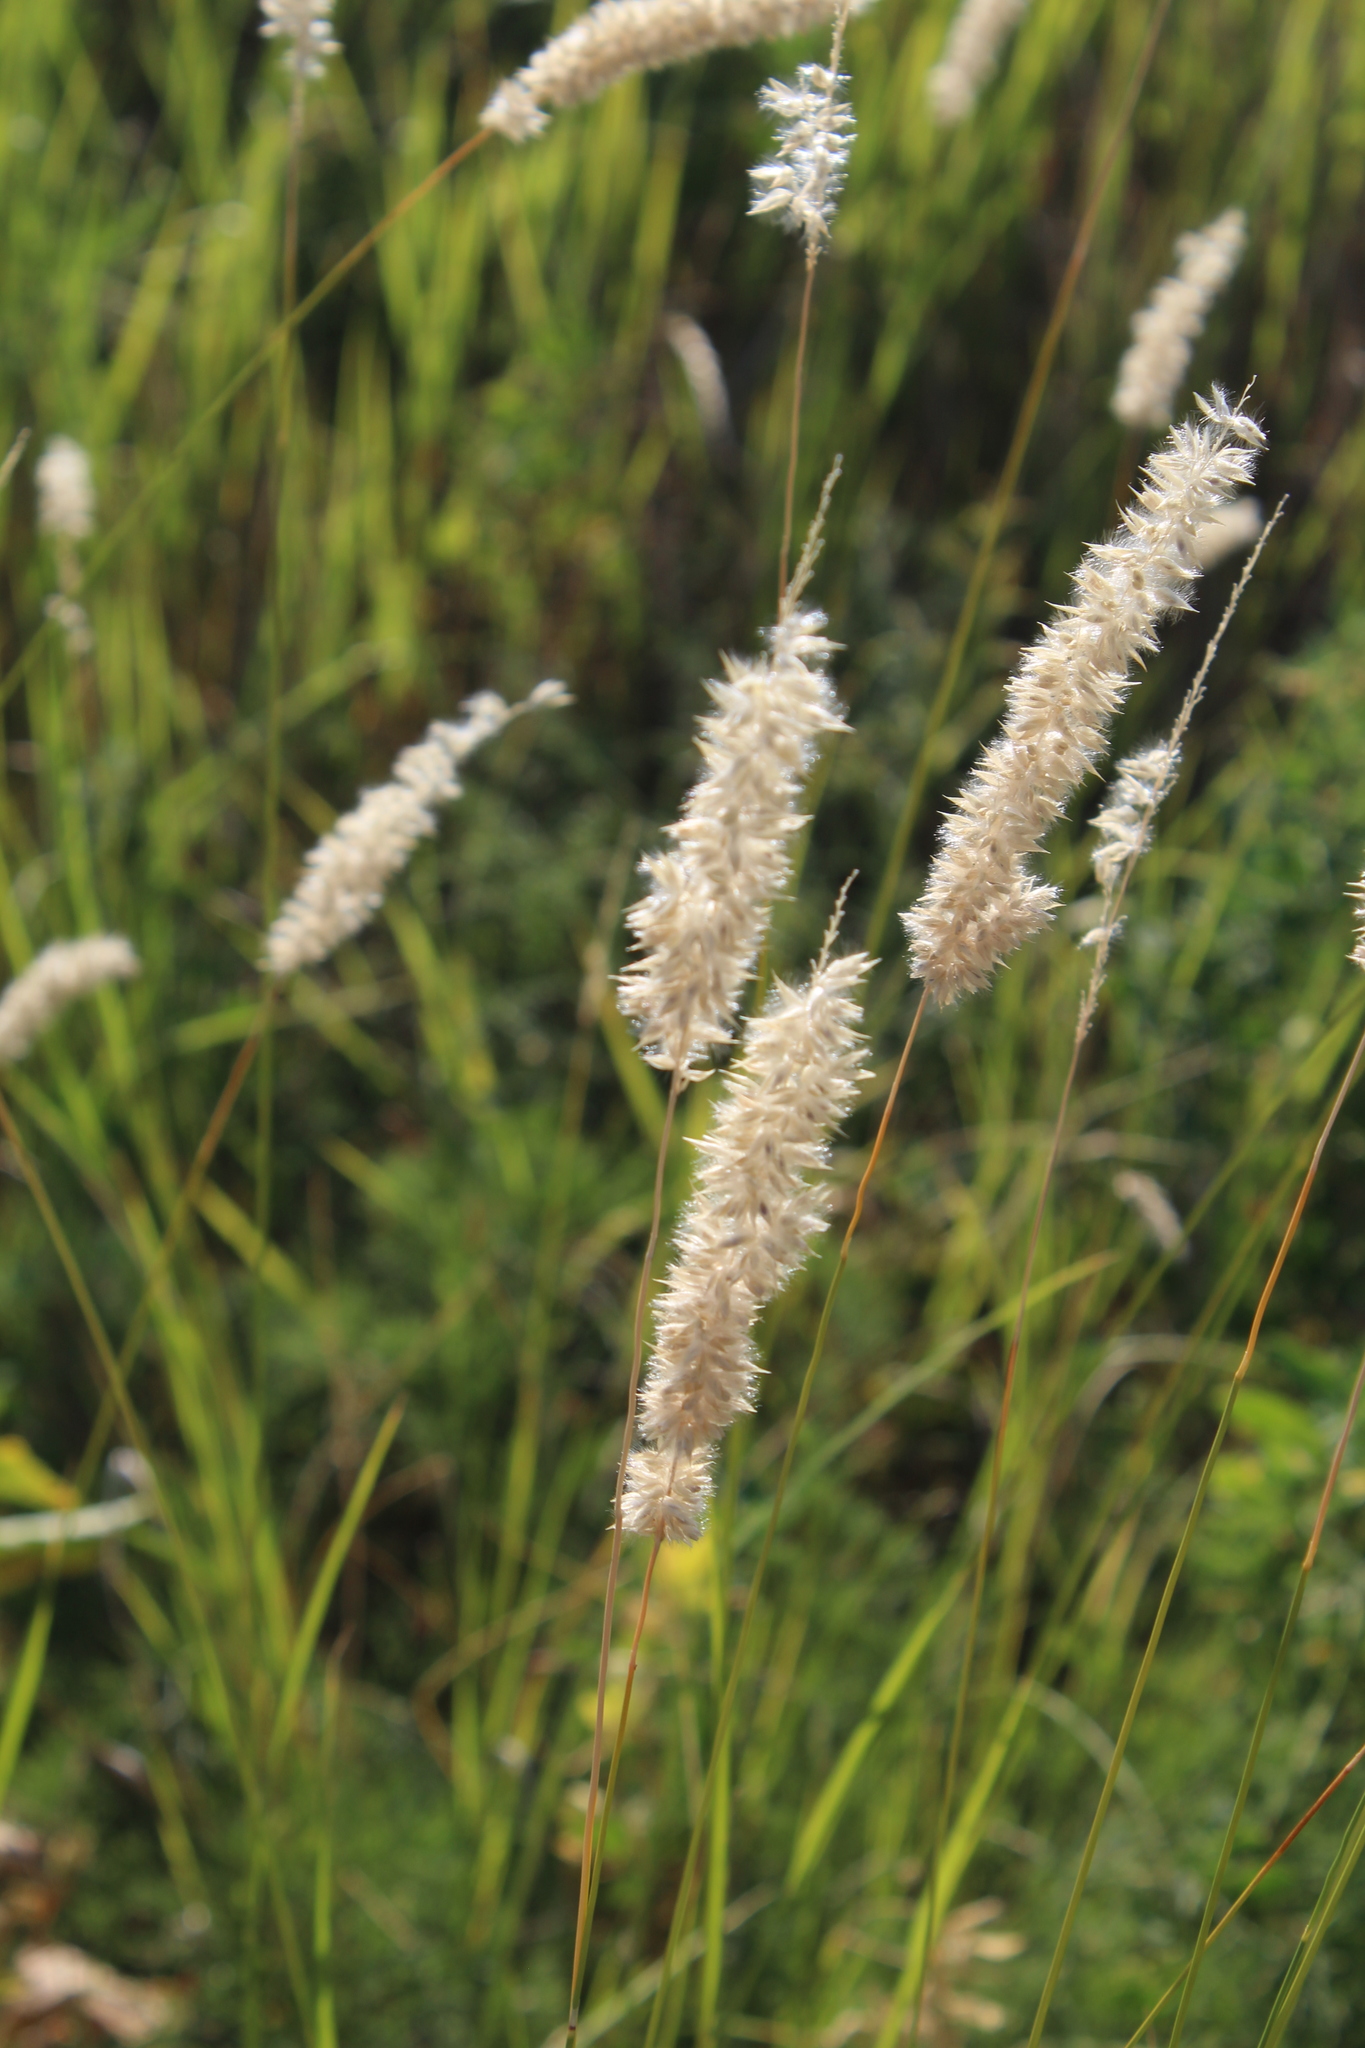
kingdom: Plantae
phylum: Tracheophyta
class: Liliopsida
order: Poales
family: Poaceae
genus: Melica
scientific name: Melica transsilvanica
